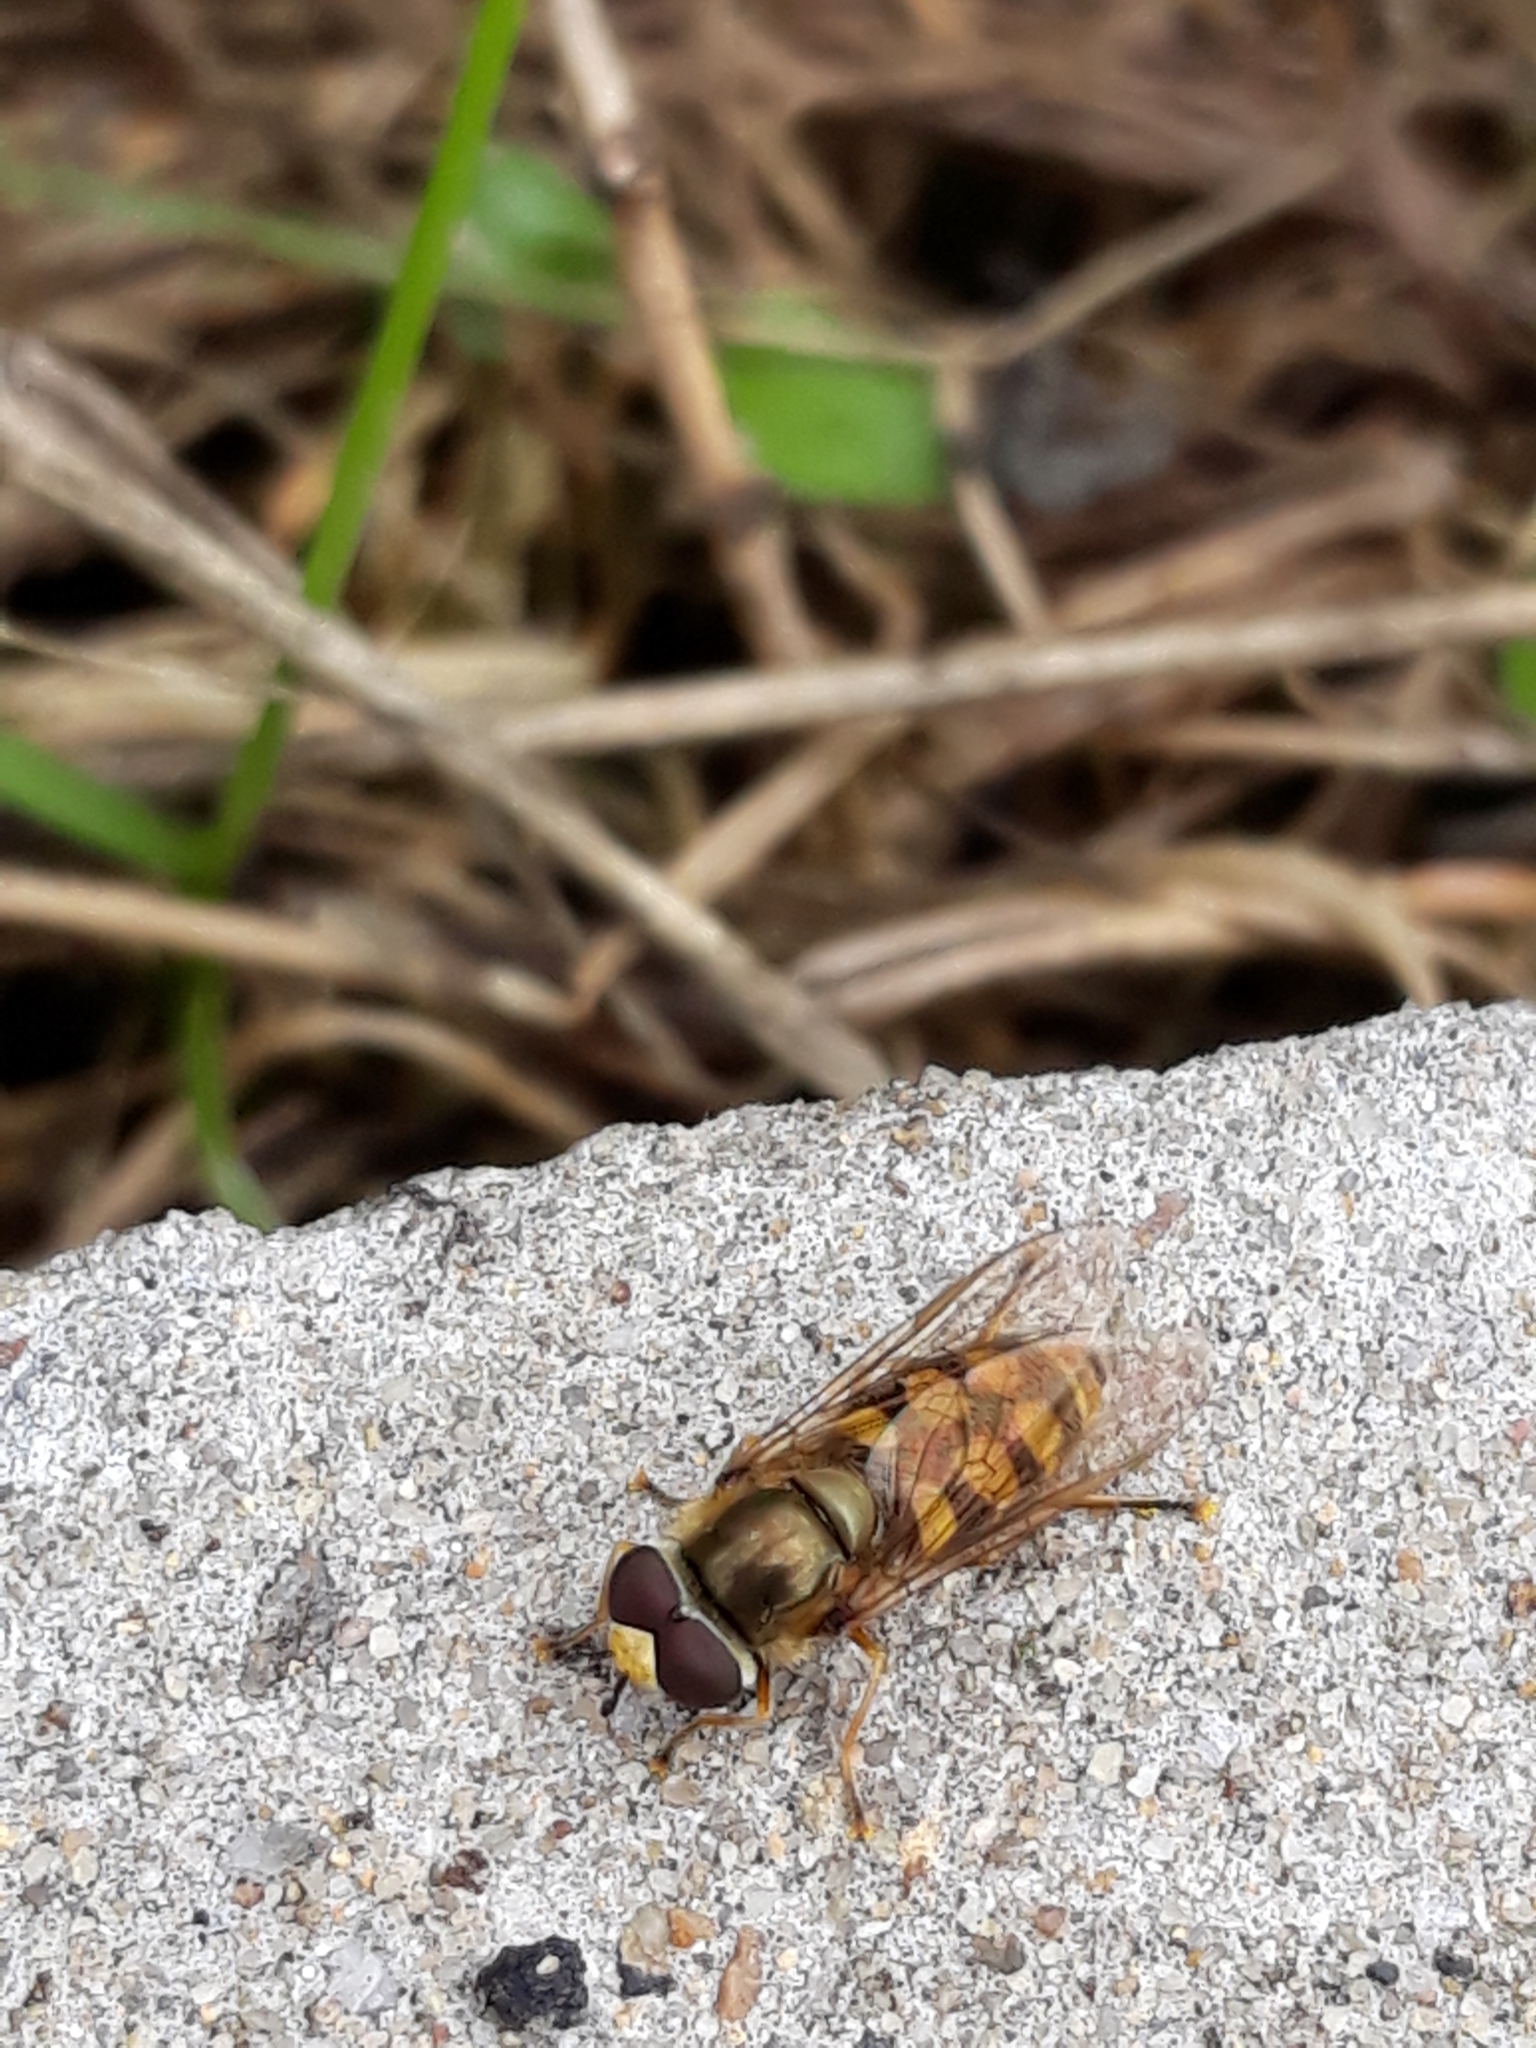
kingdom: Animalia
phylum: Arthropoda
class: Insecta
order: Diptera
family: Syrphidae
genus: Eupeodes
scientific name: Eupeodes corollae
